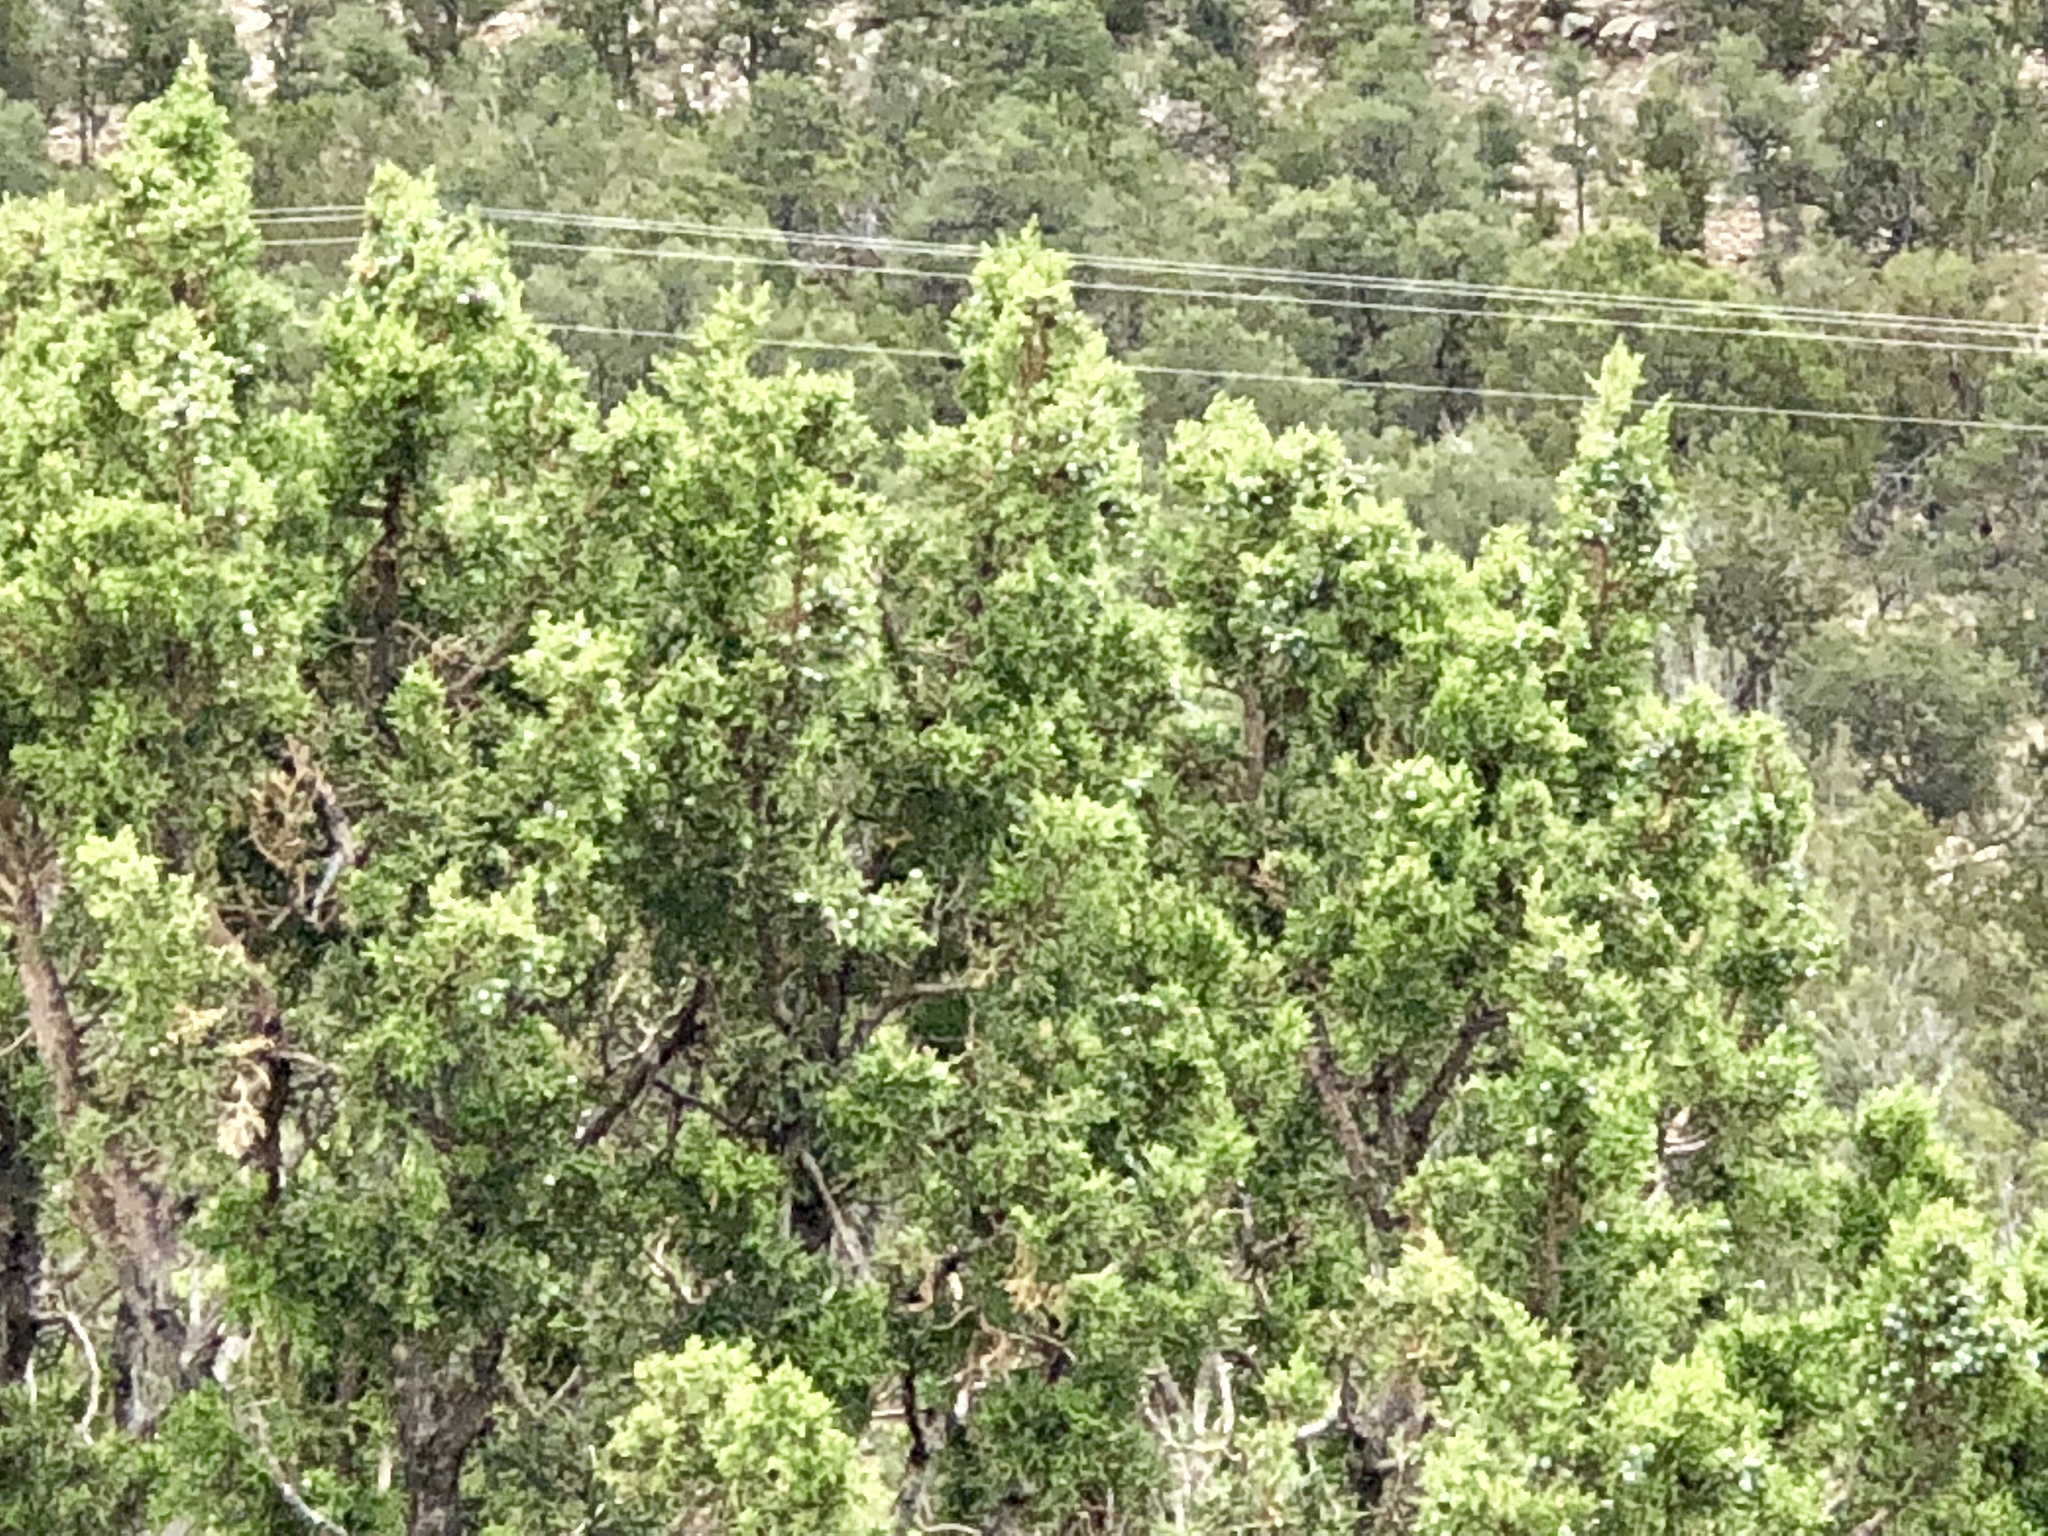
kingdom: Plantae
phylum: Tracheophyta
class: Pinopsida
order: Pinales
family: Cupressaceae
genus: Juniperus
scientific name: Juniperus monosperma
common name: One-seed juniper
